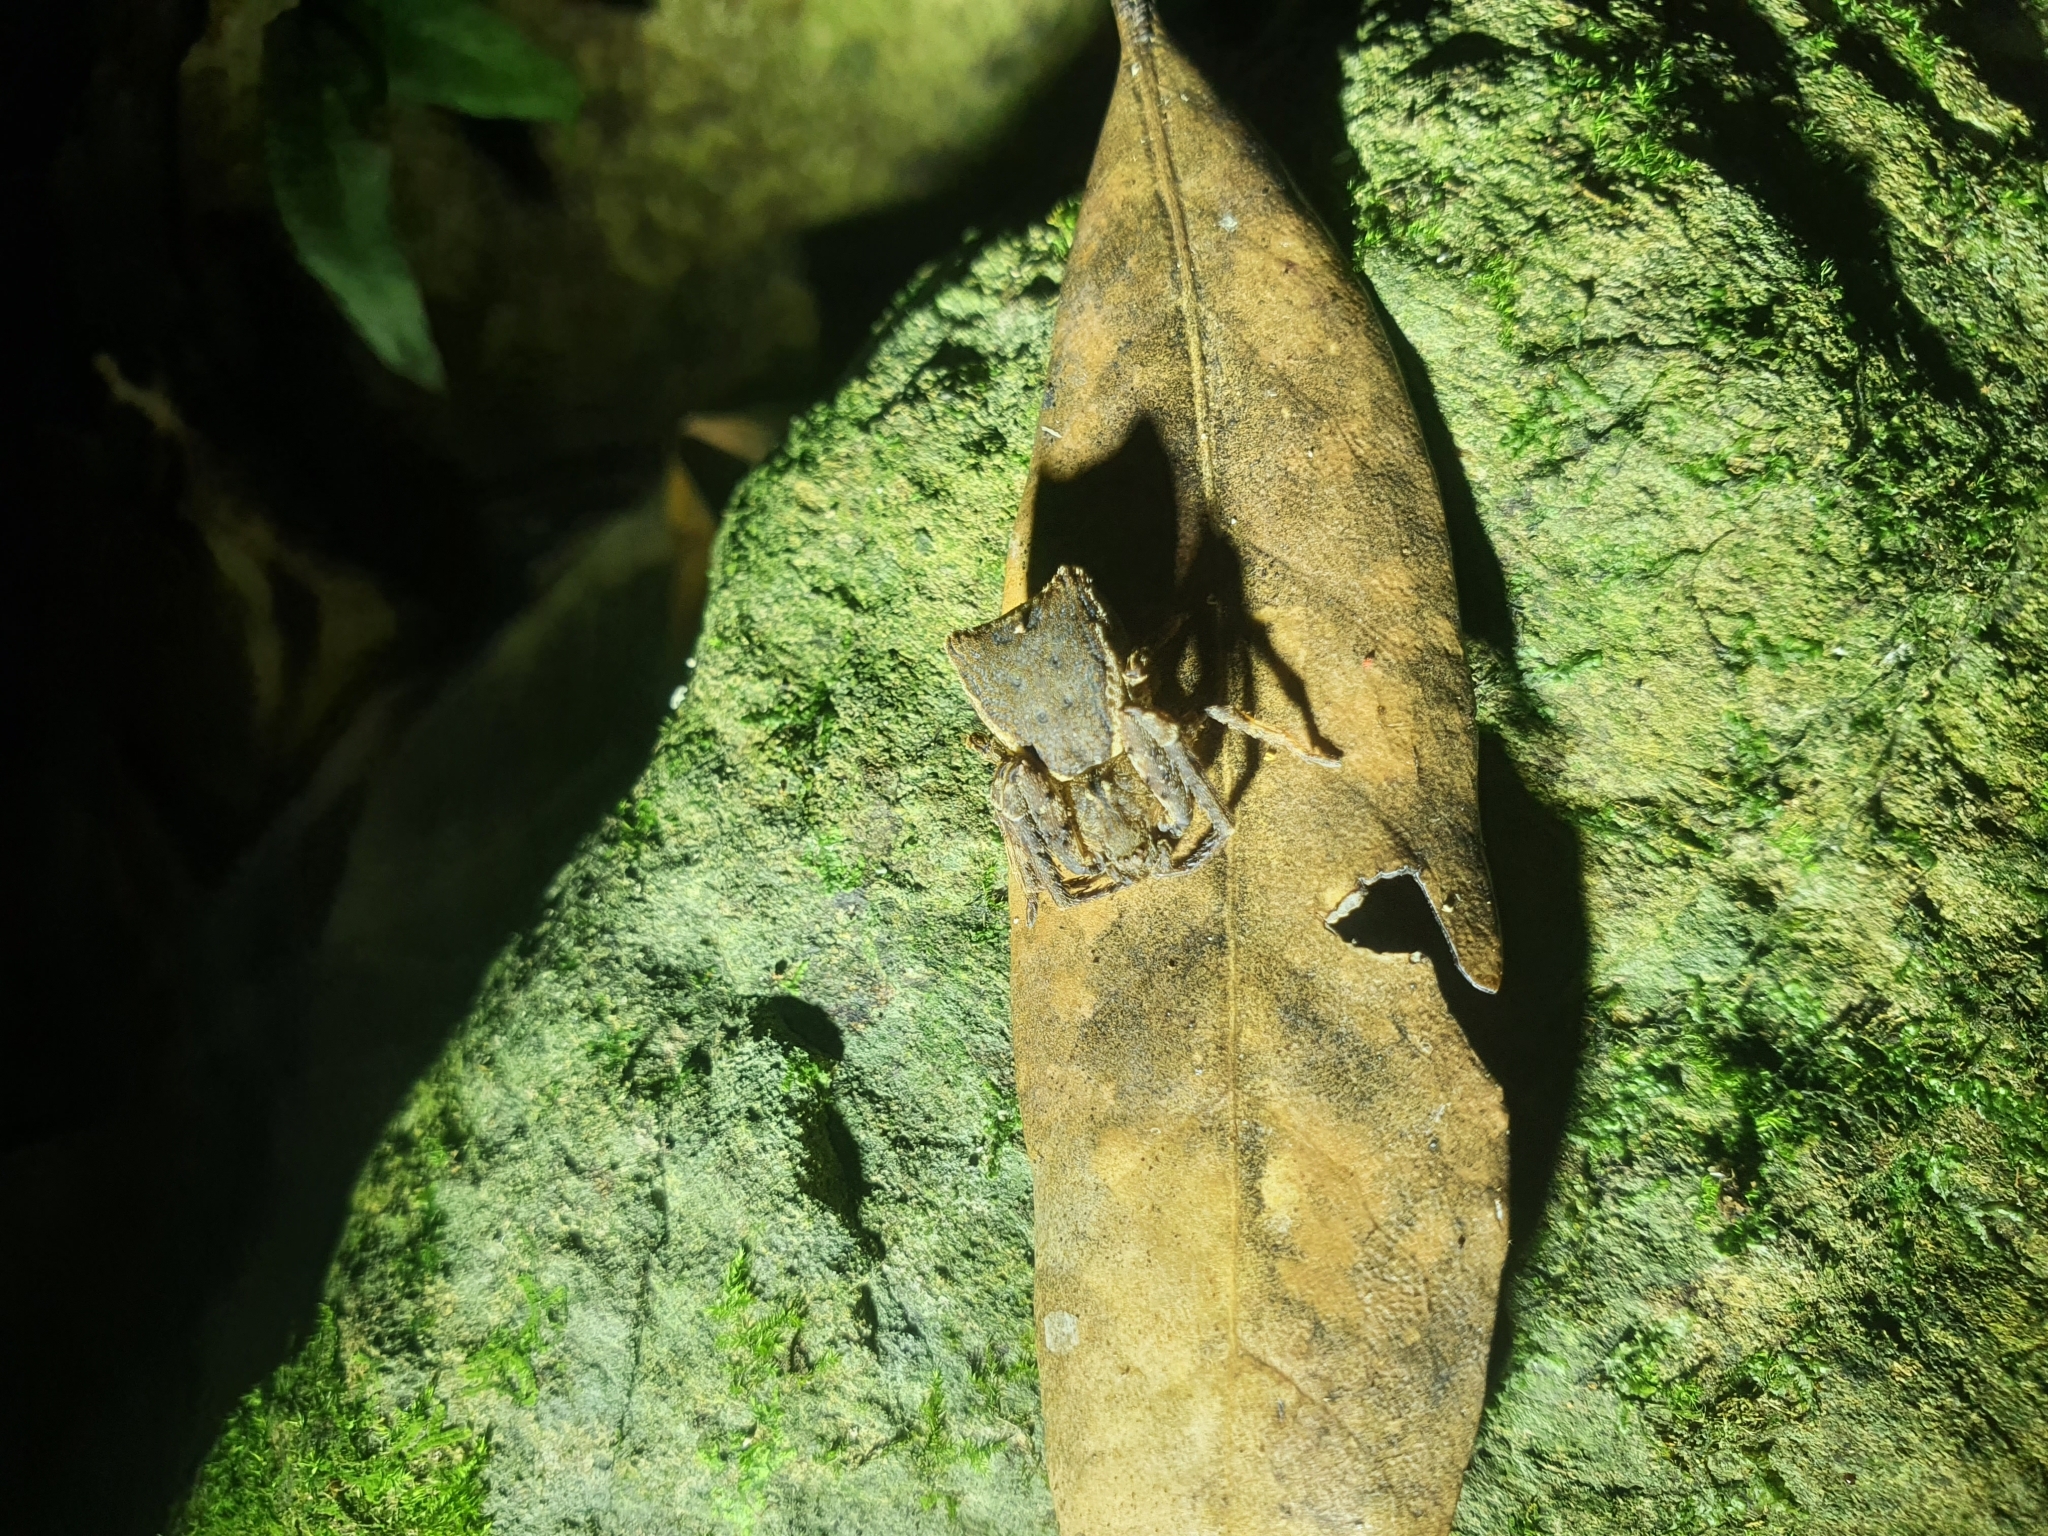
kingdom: Animalia
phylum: Arthropoda
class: Arachnida
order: Araneae
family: Thomisidae
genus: Sidymella
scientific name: Sidymella angularis
